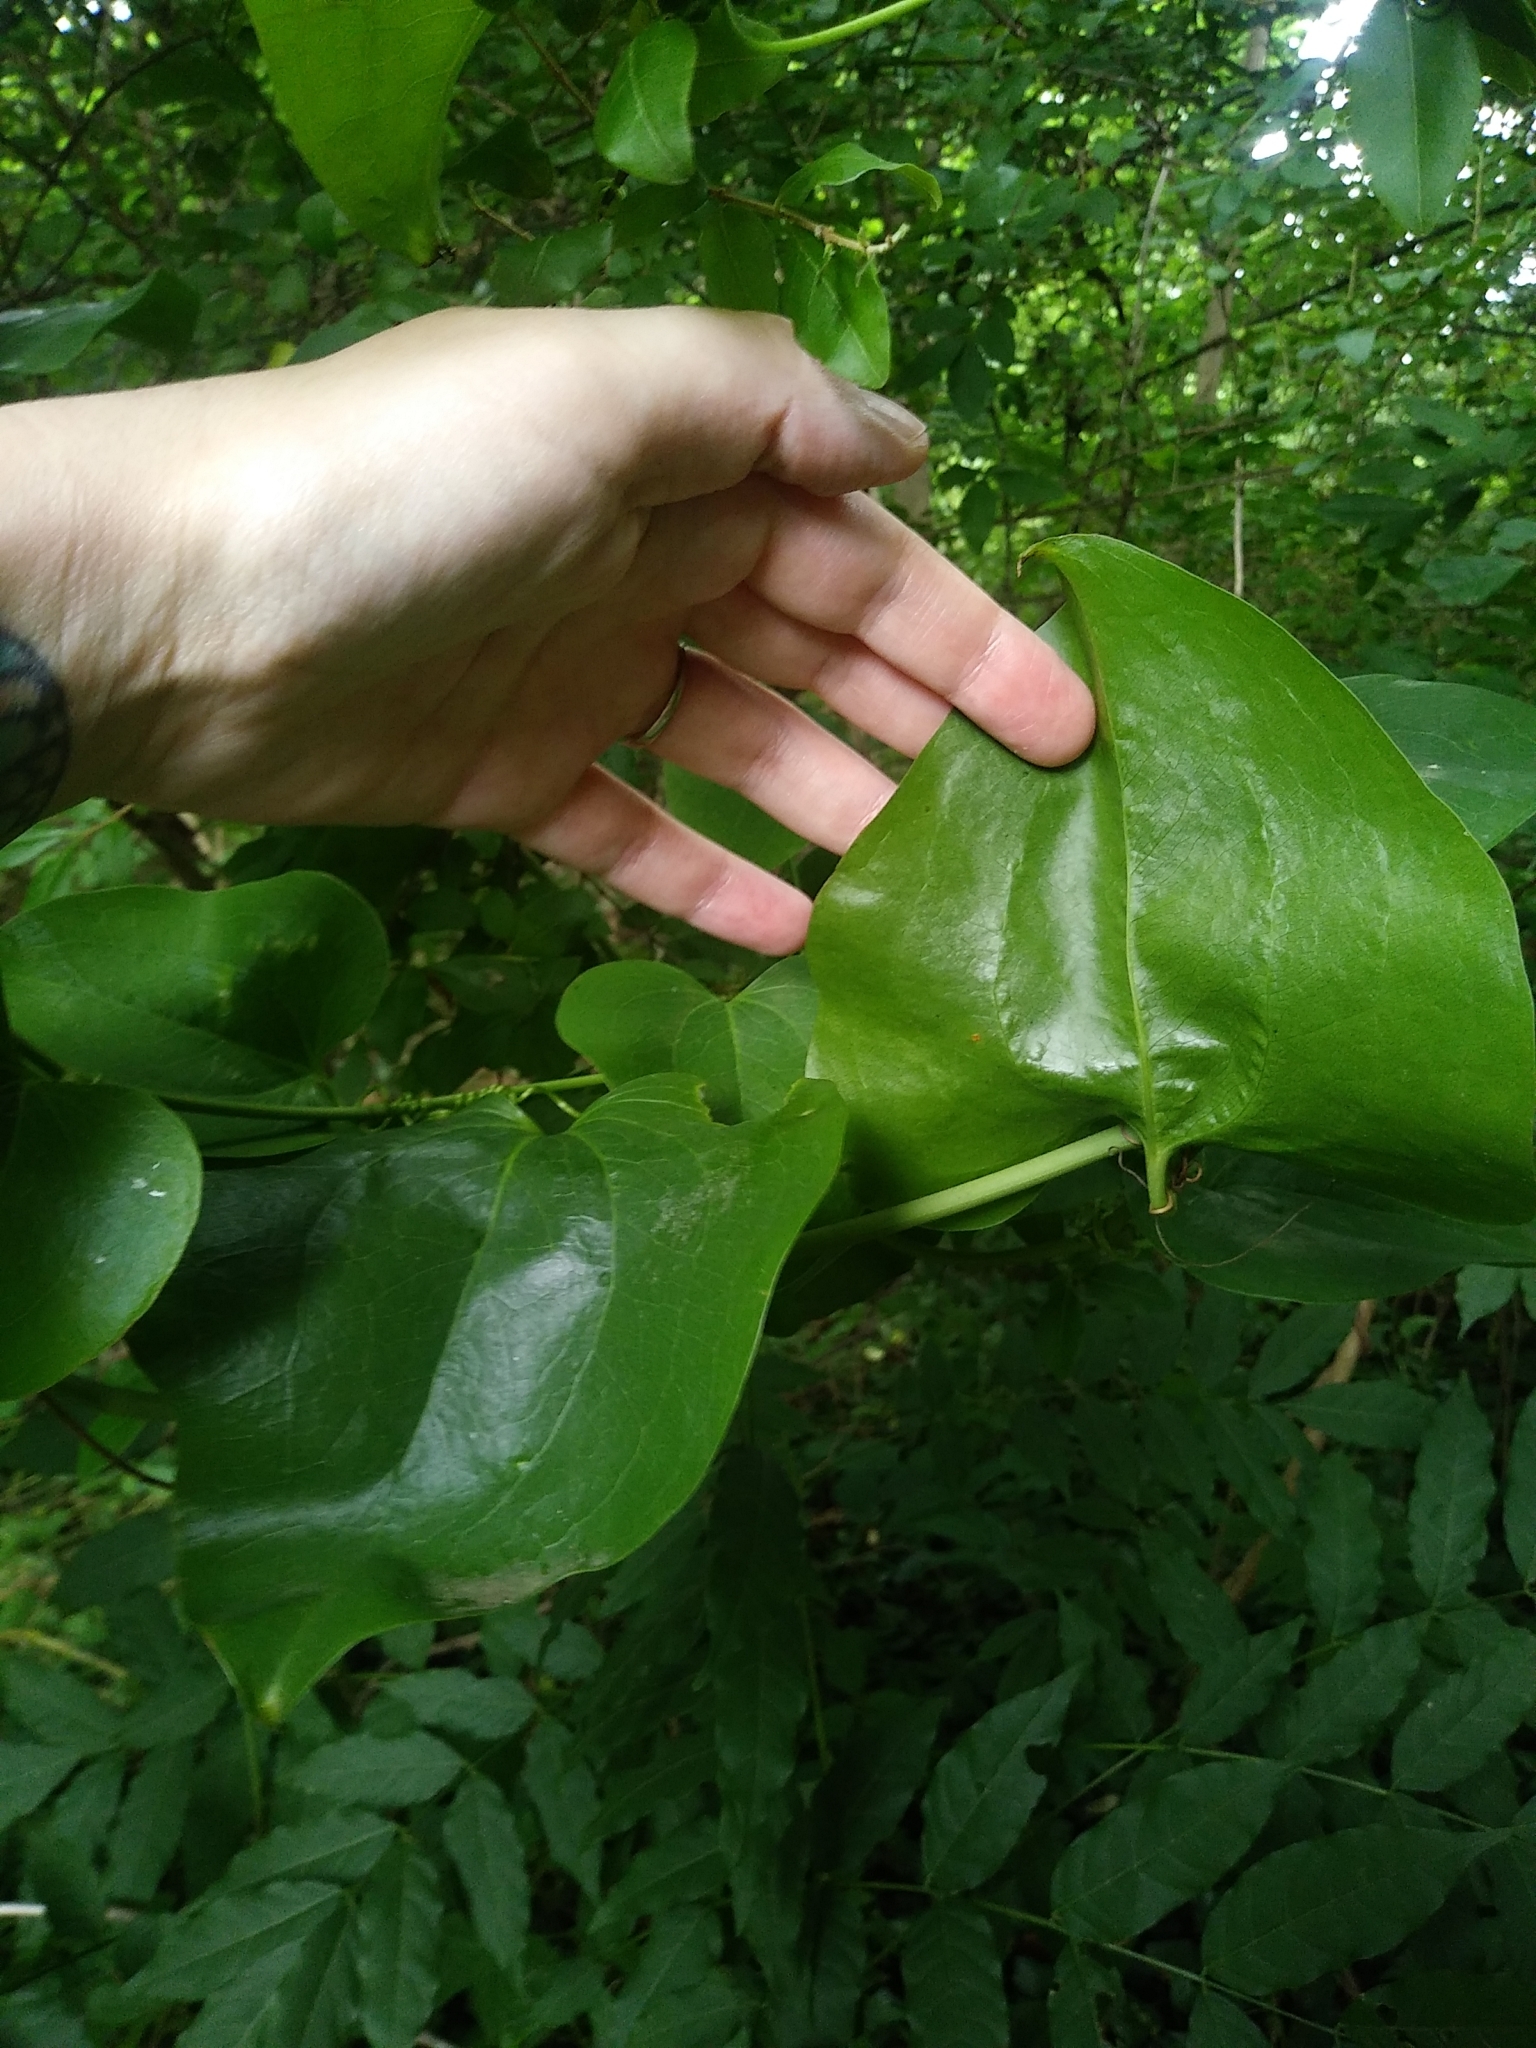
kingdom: Plantae
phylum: Tracheophyta
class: Liliopsida
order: Liliales
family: Smilacaceae
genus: Smilax
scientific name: Smilax rotundifolia
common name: Bullbriar
